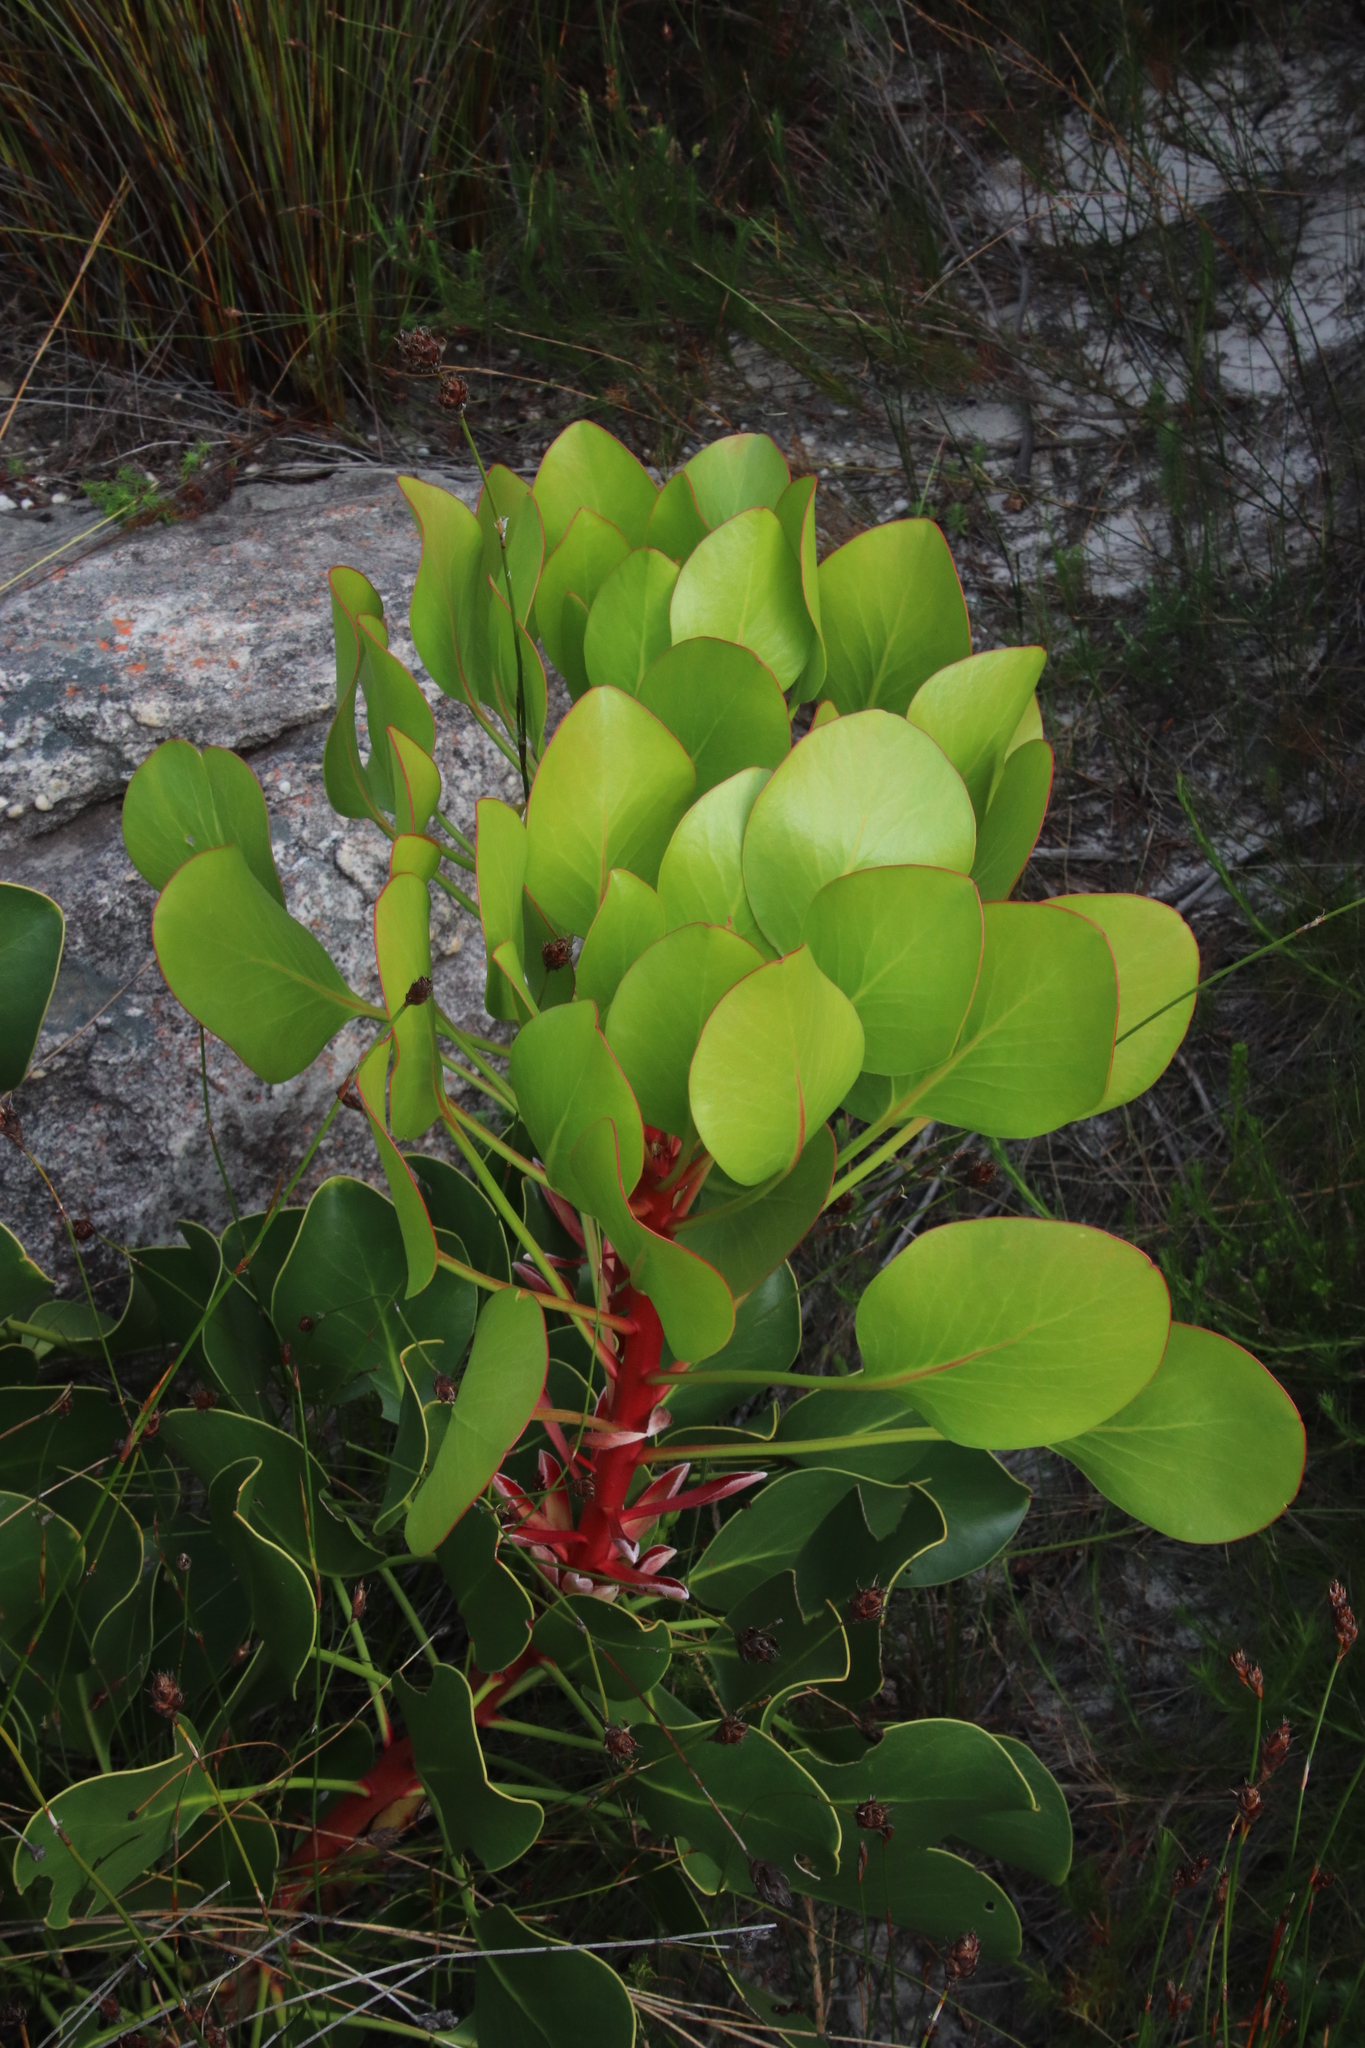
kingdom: Plantae
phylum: Tracheophyta
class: Magnoliopsida
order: Proteales
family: Proteaceae
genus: Protea
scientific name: Protea cynaroides
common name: King protea
